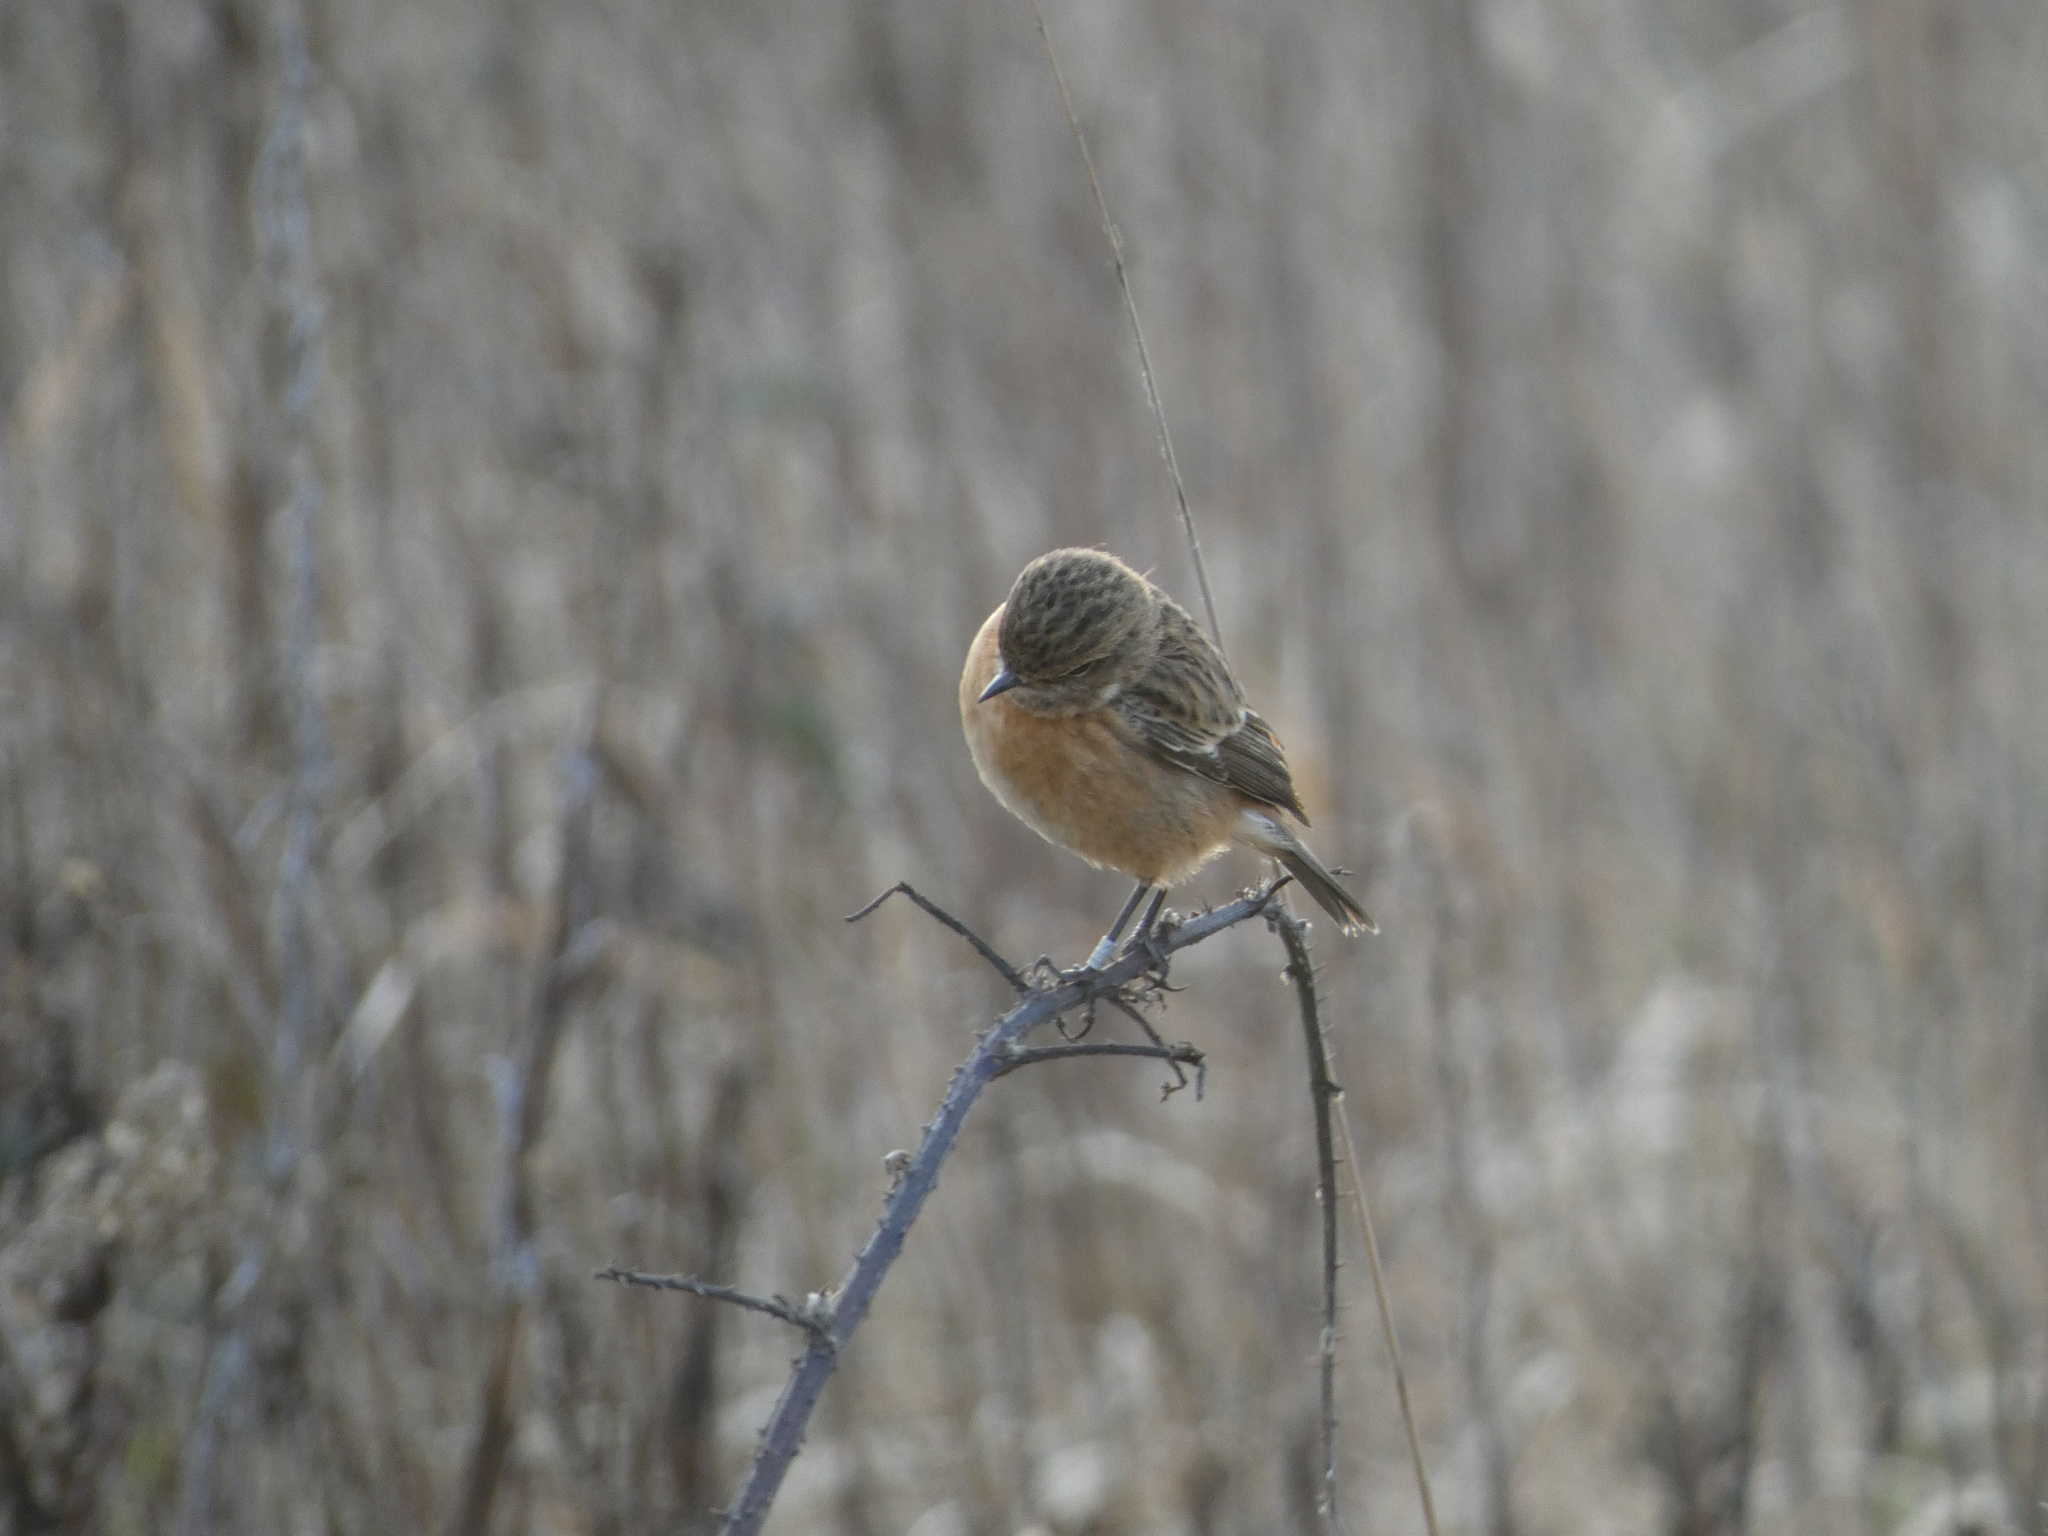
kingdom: Animalia
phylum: Chordata
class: Aves
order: Passeriformes
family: Muscicapidae
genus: Saxicola
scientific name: Saxicola rubicola
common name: European stonechat
